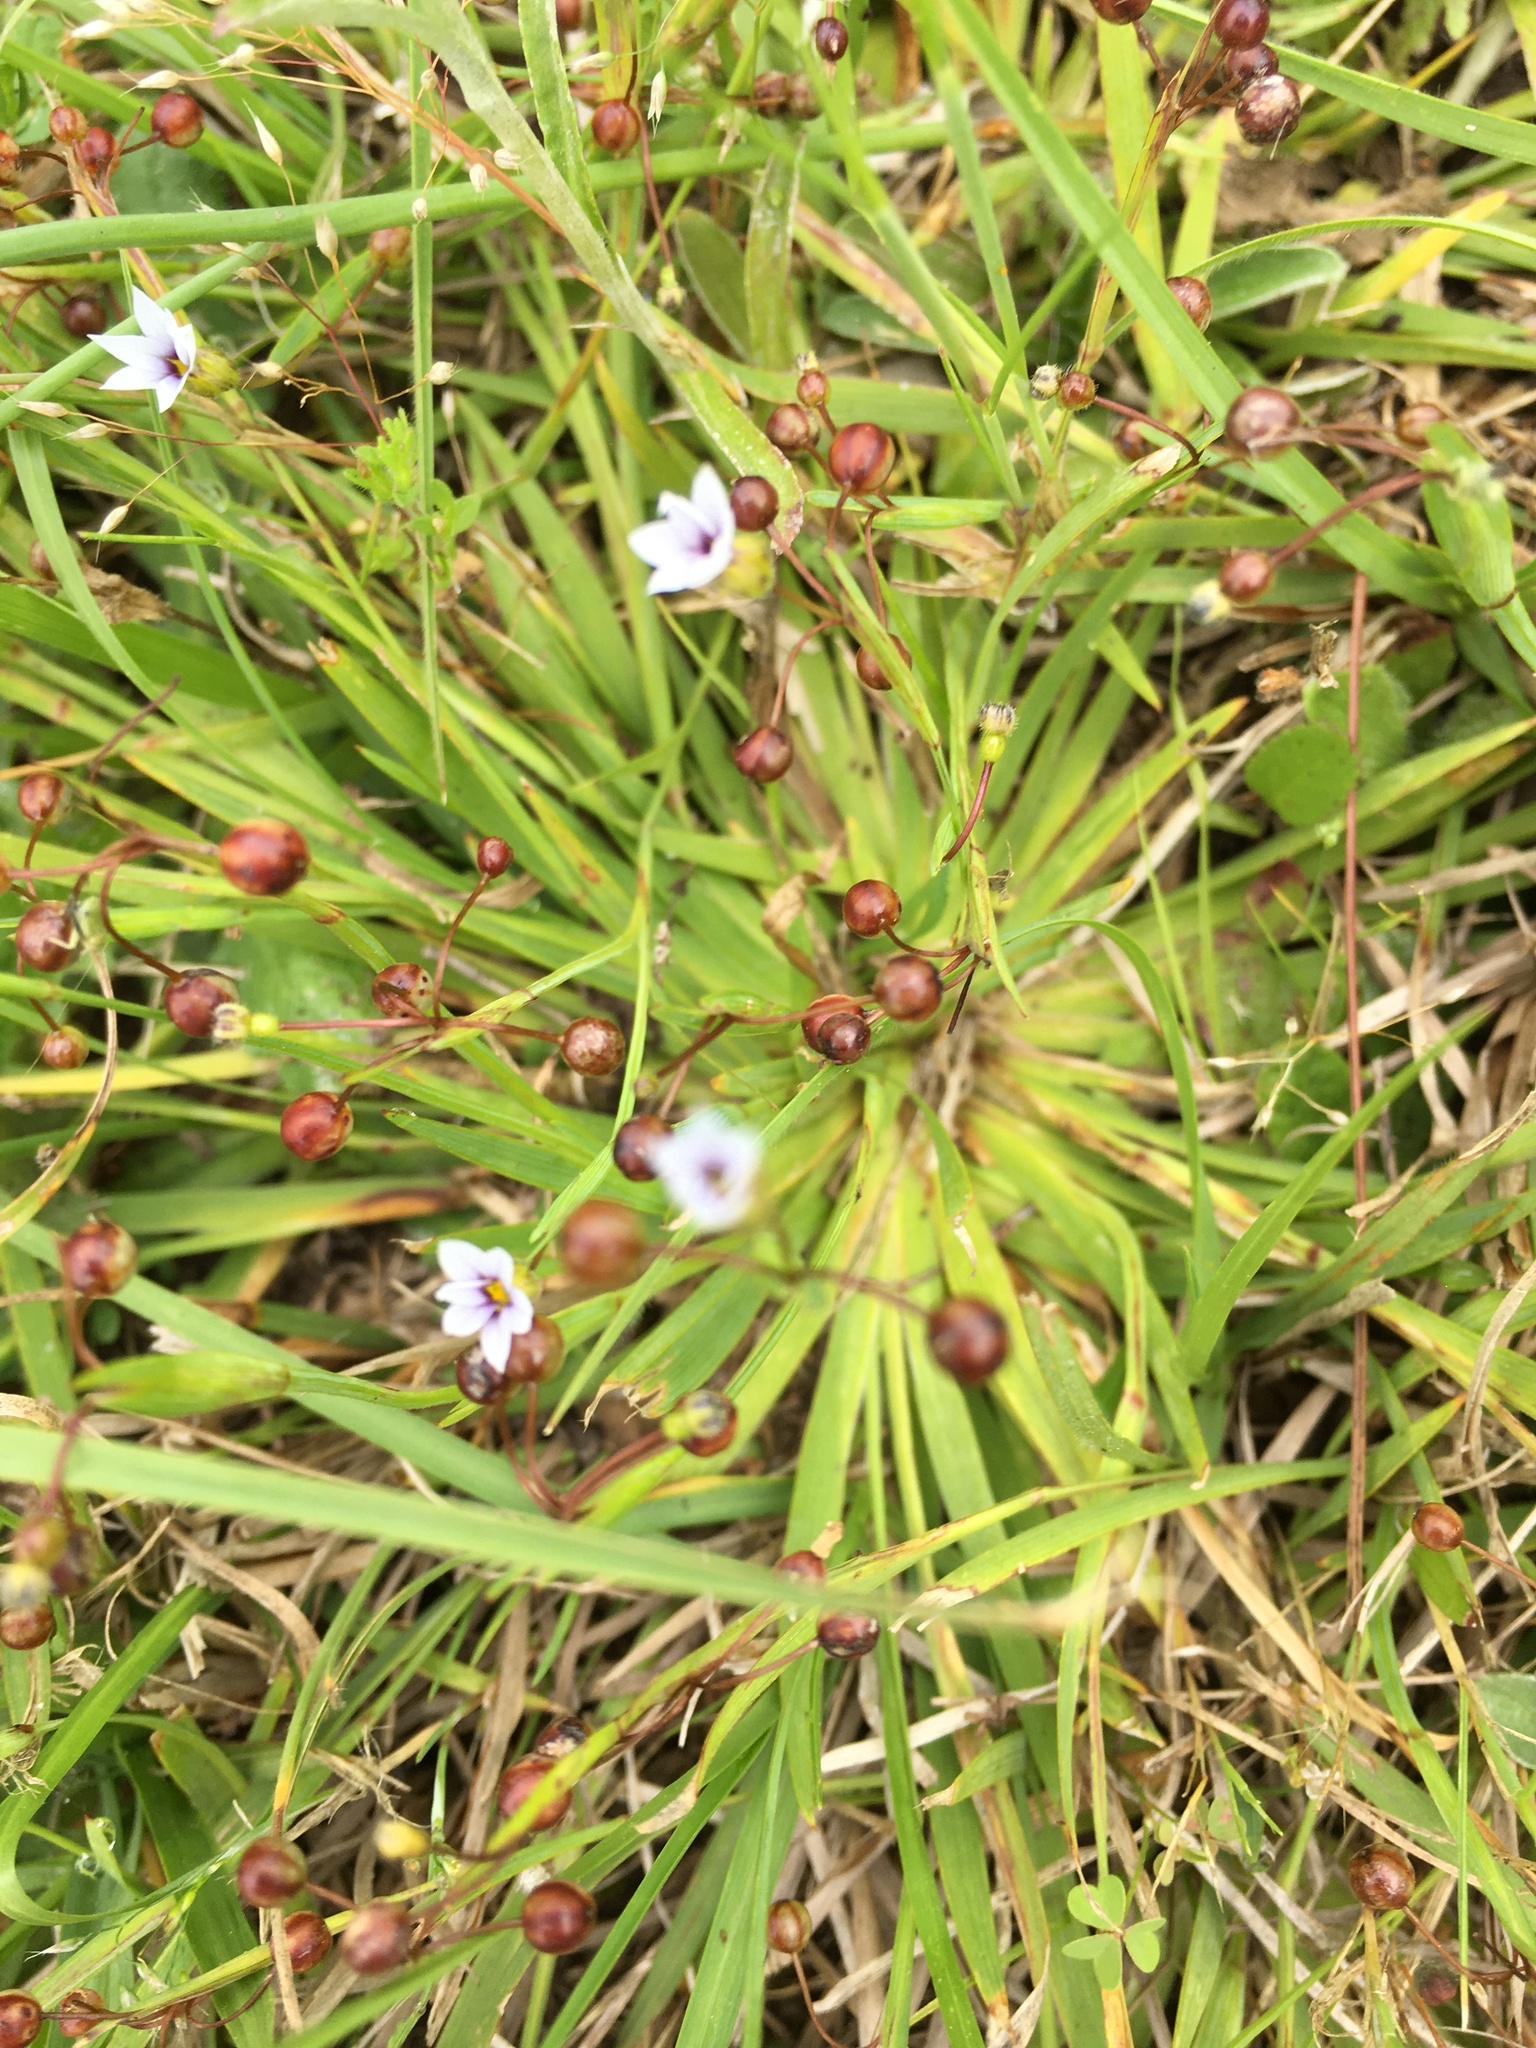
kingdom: Plantae
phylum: Tracheophyta
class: Liliopsida
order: Asparagales
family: Iridaceae
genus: Sisyrinchium
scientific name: Sisyrinchium micranthum
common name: Bermuda pigroot
